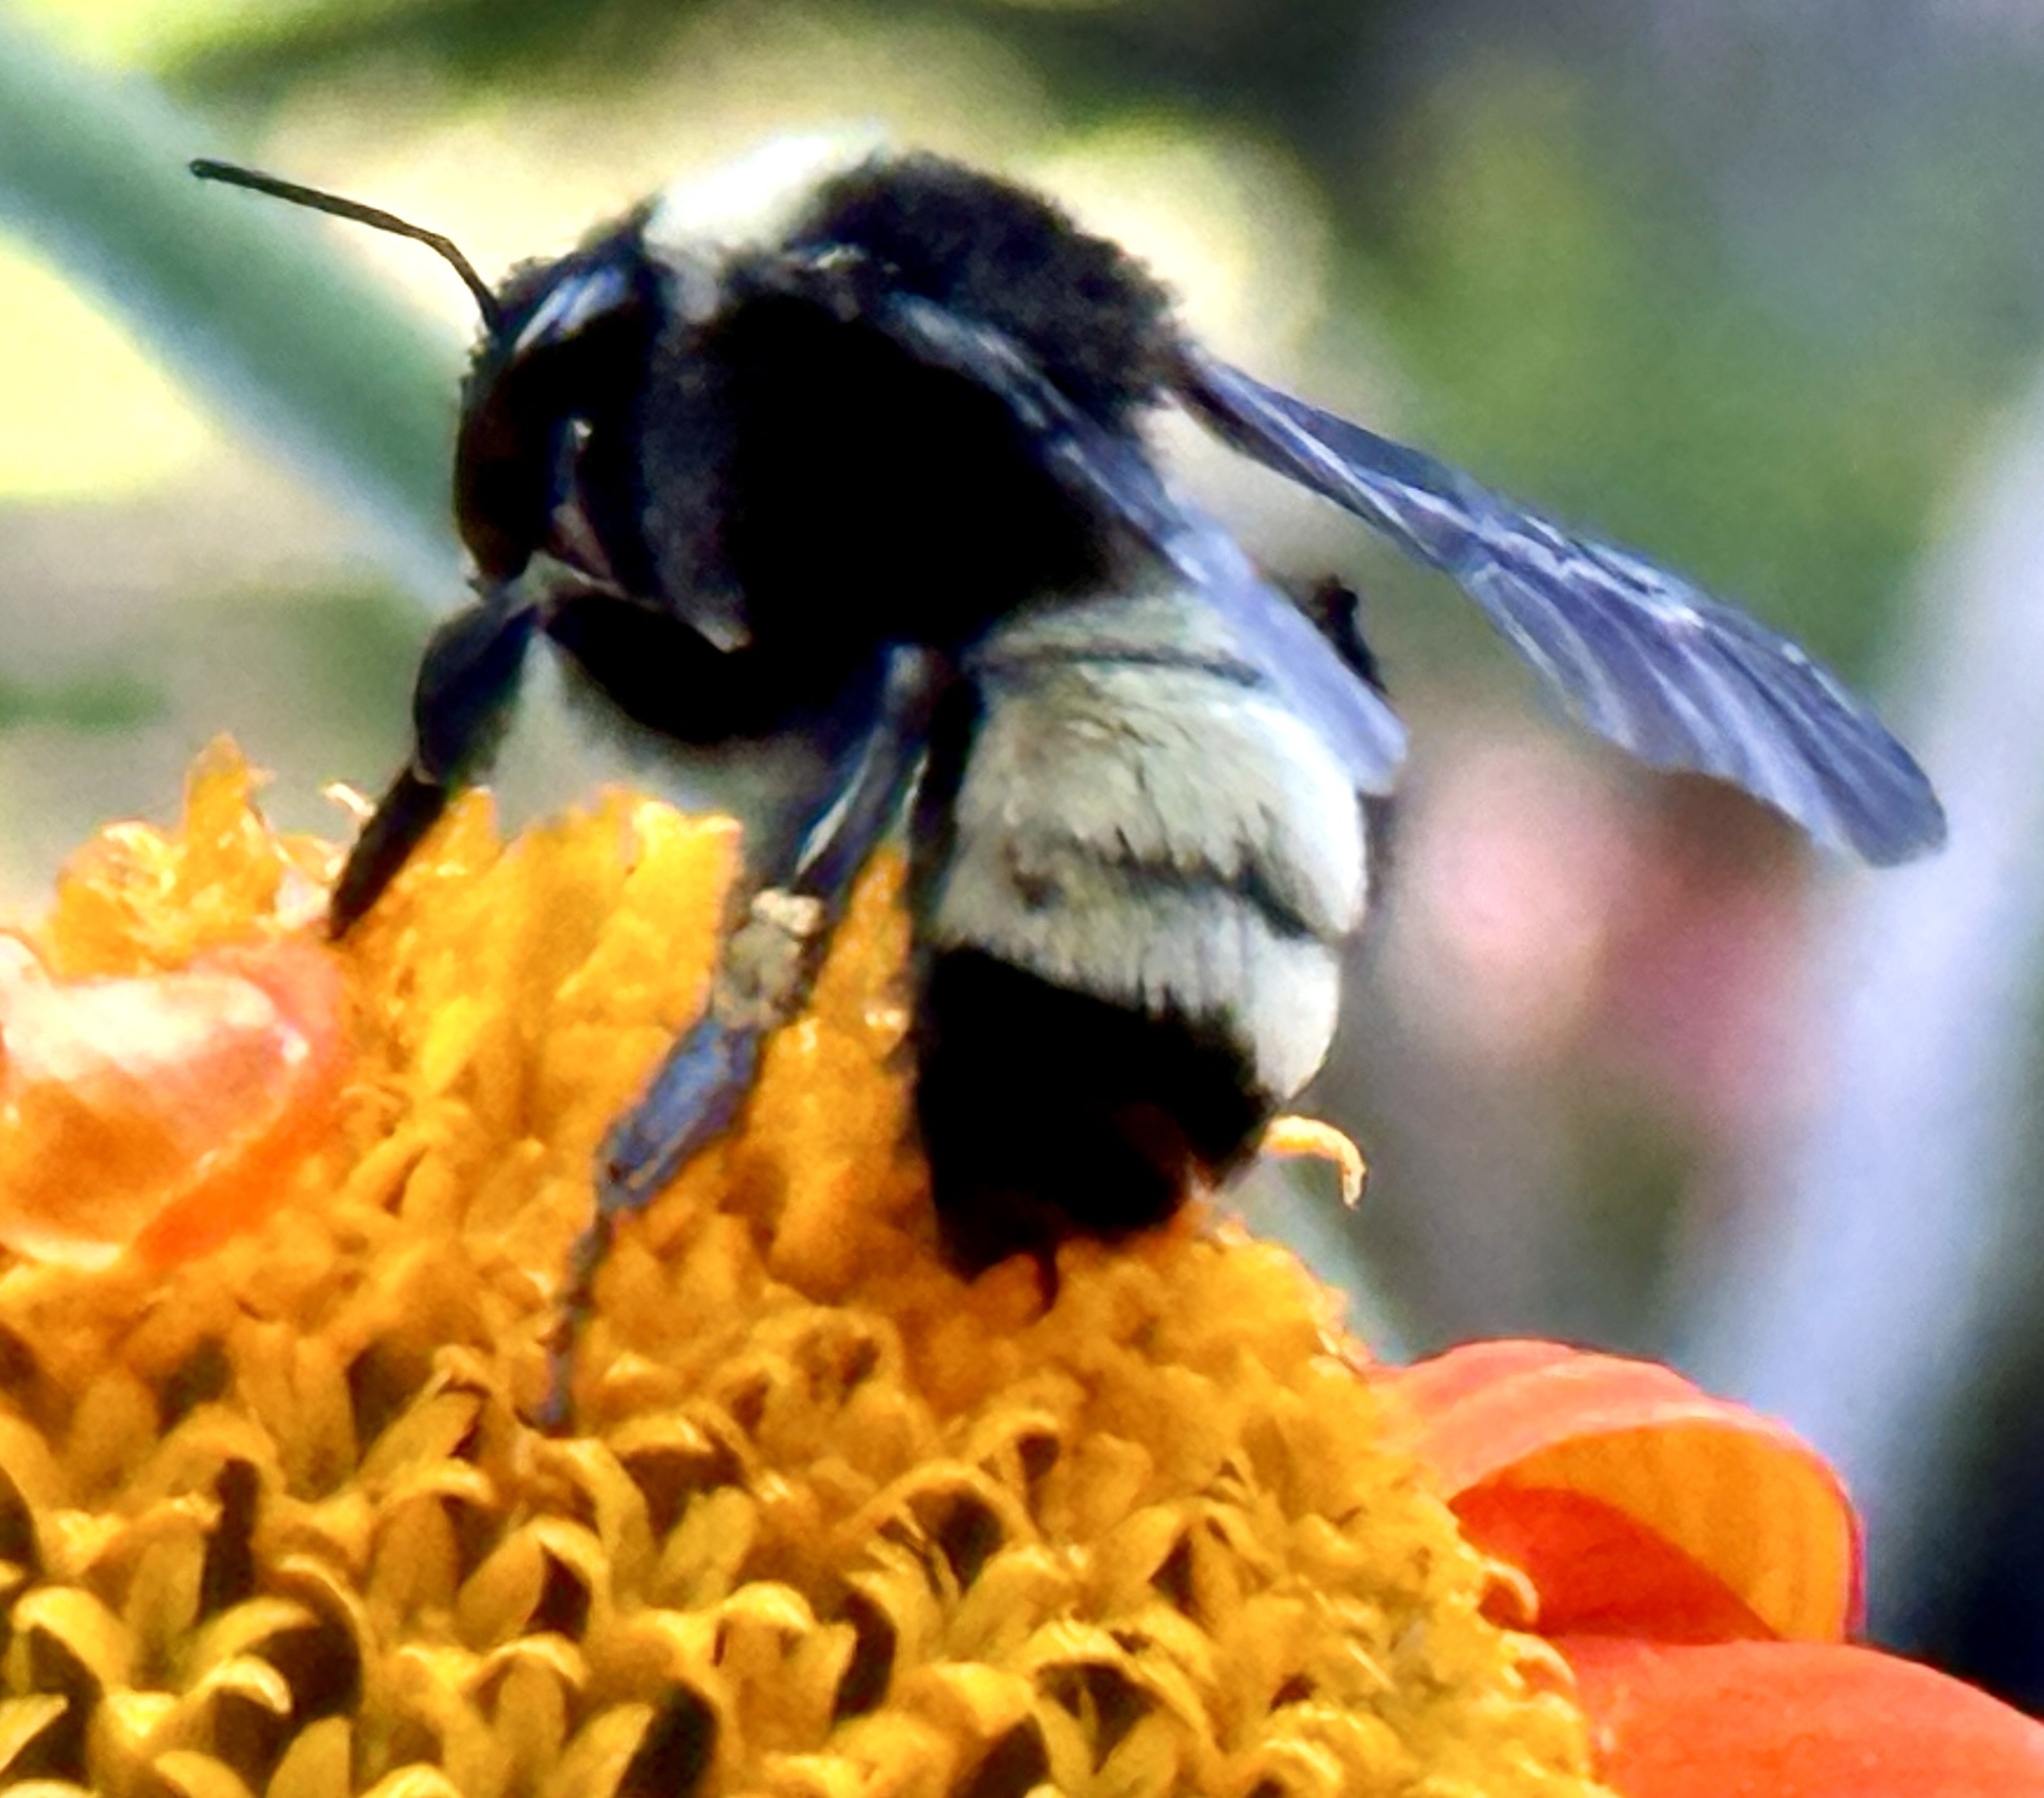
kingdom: Animalia
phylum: Arthropoda
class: Insecta
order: Hymenoptera
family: Apidae
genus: Bombus
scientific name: Bombus pensylvanicus
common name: Bumble bee
